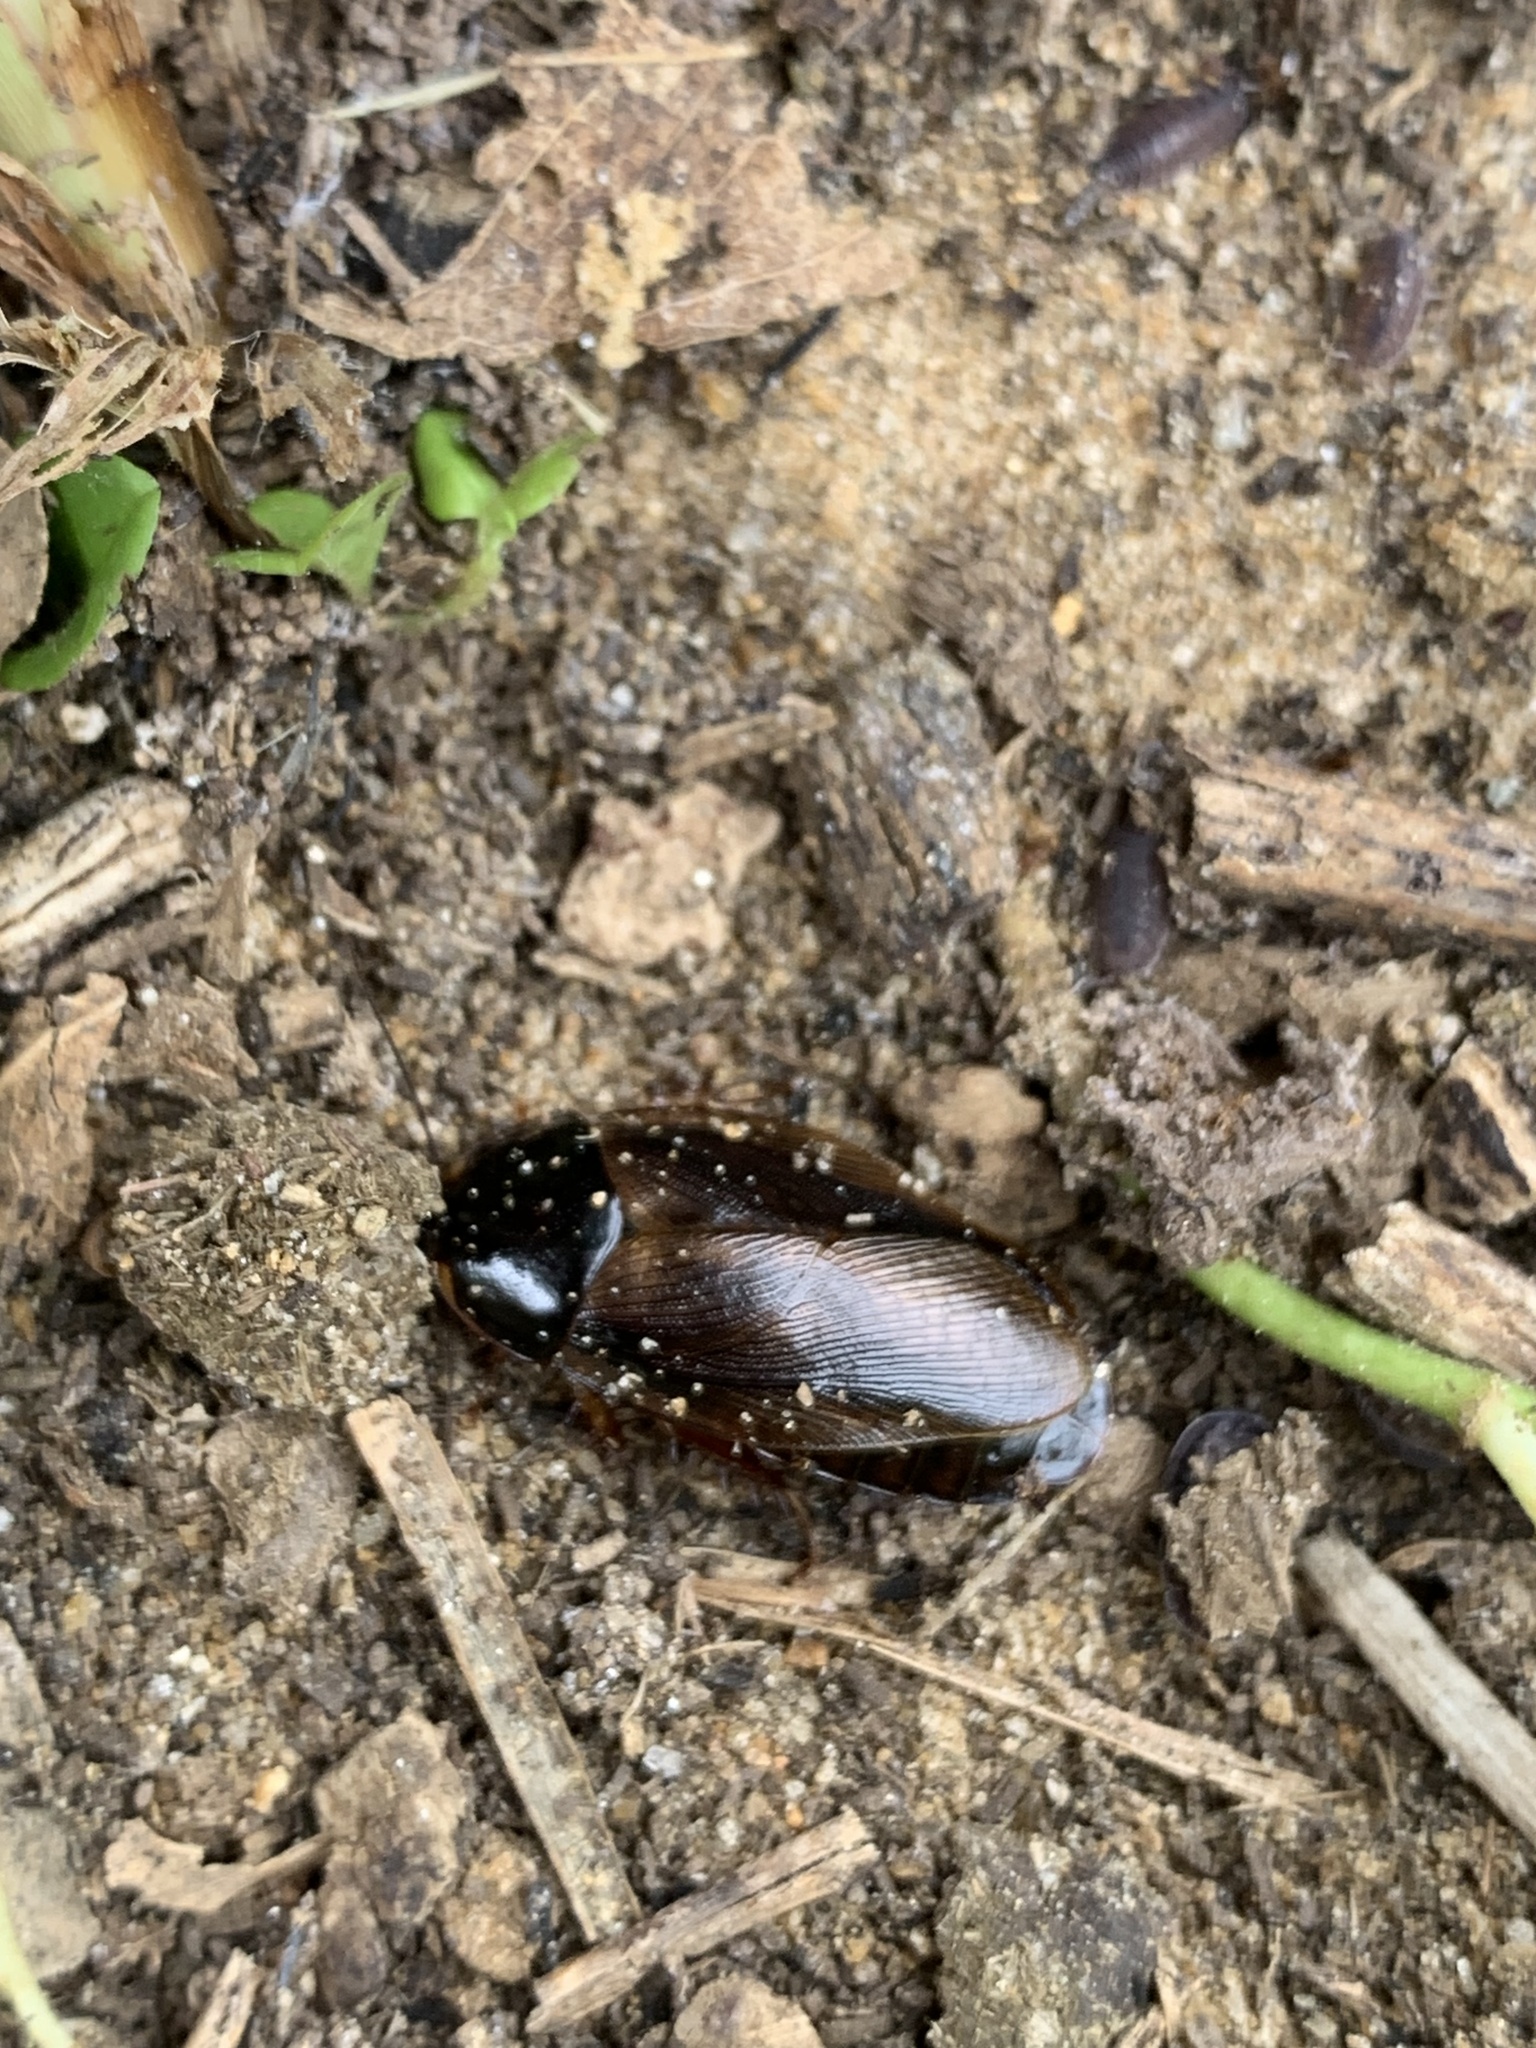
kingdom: Animalia
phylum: Arthropoda
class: Insecta
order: Blattodea
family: Blaberidae
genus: Pycnoscelus
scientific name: Pycnoscelus surinamensis
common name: Surinam cockroach
